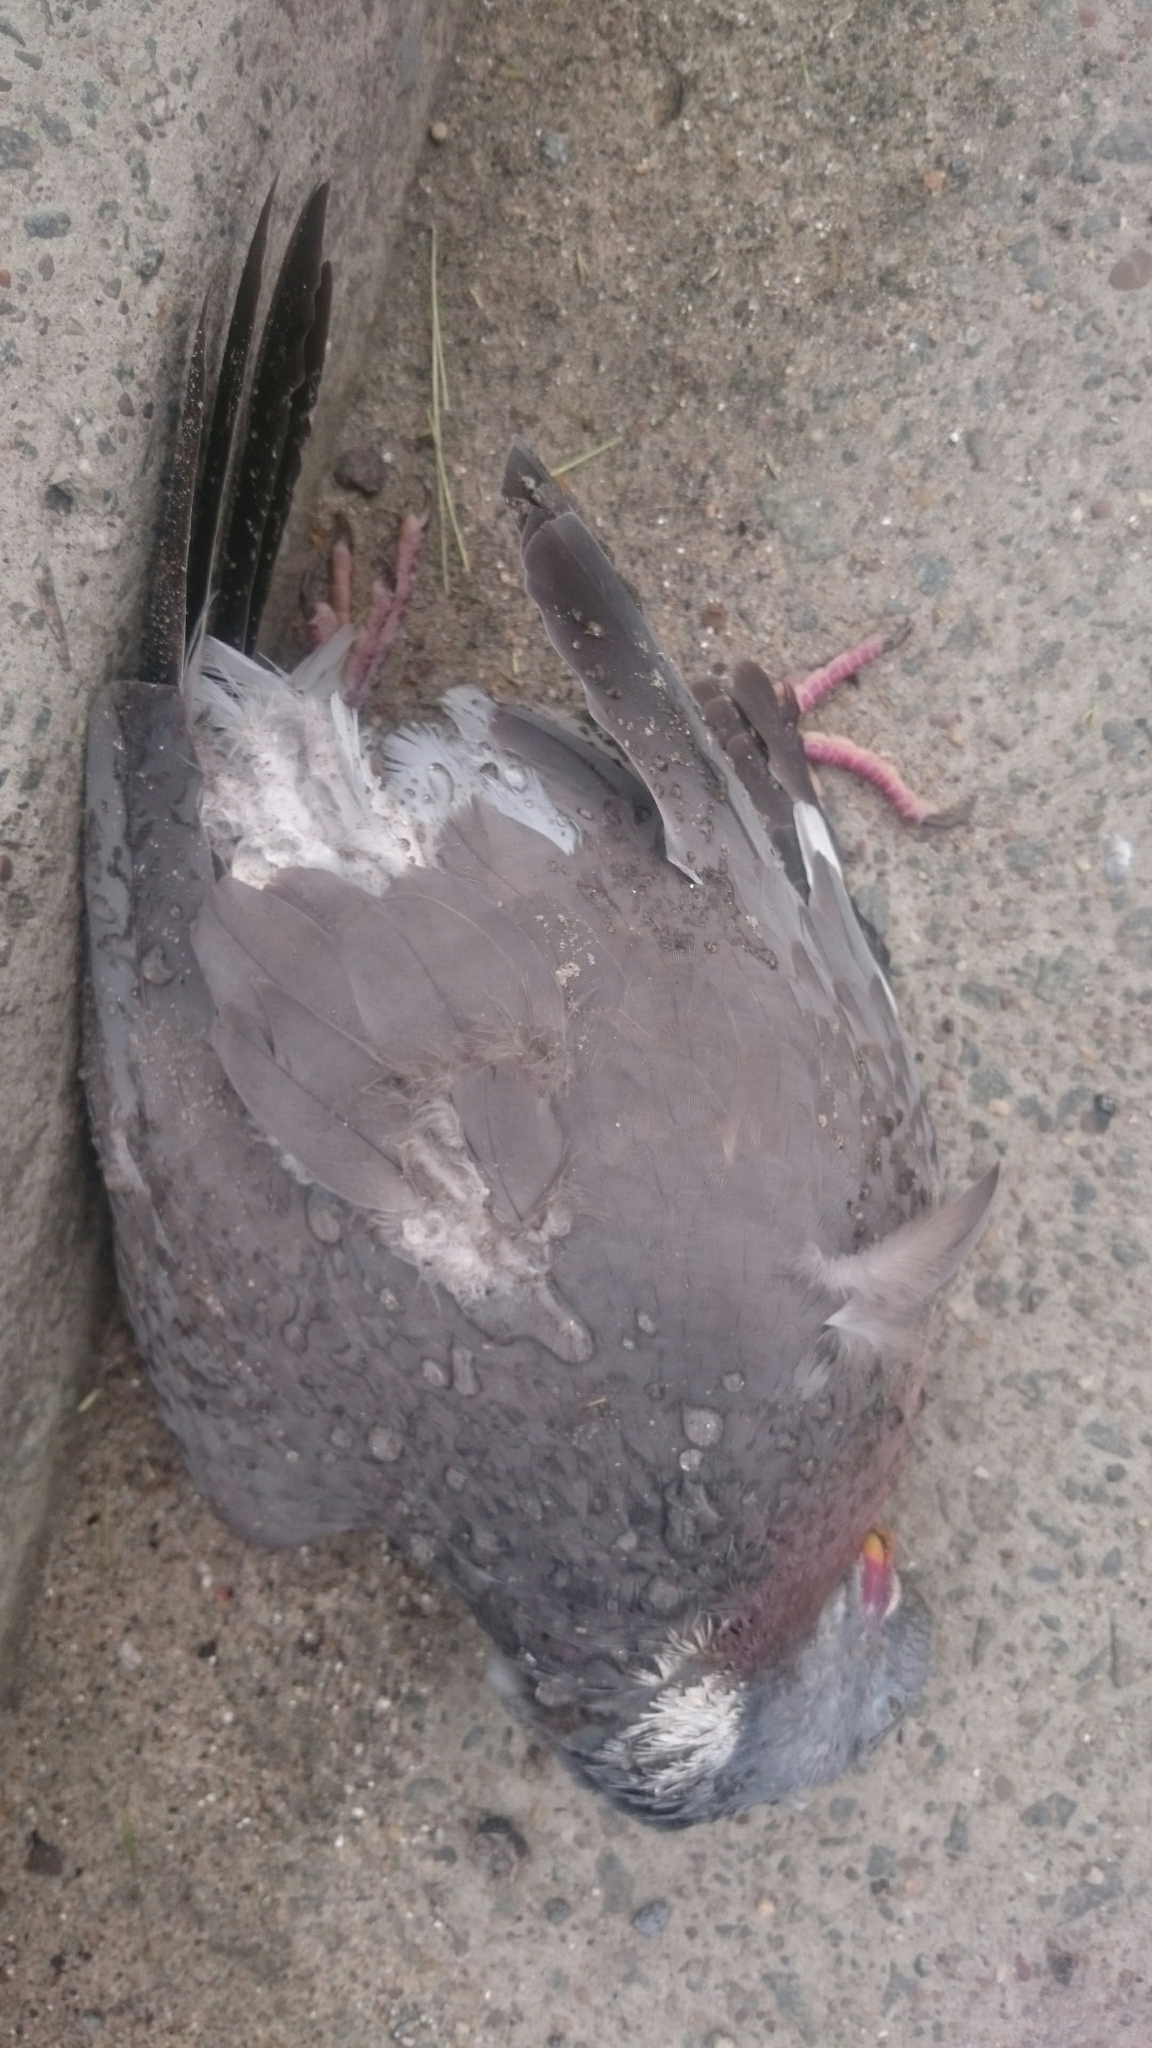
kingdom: Animalia
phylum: Chordata
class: Aves
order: Columbiformes
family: Columbidae
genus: Columba
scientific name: Columba palumbus
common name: Common wood pigeon
